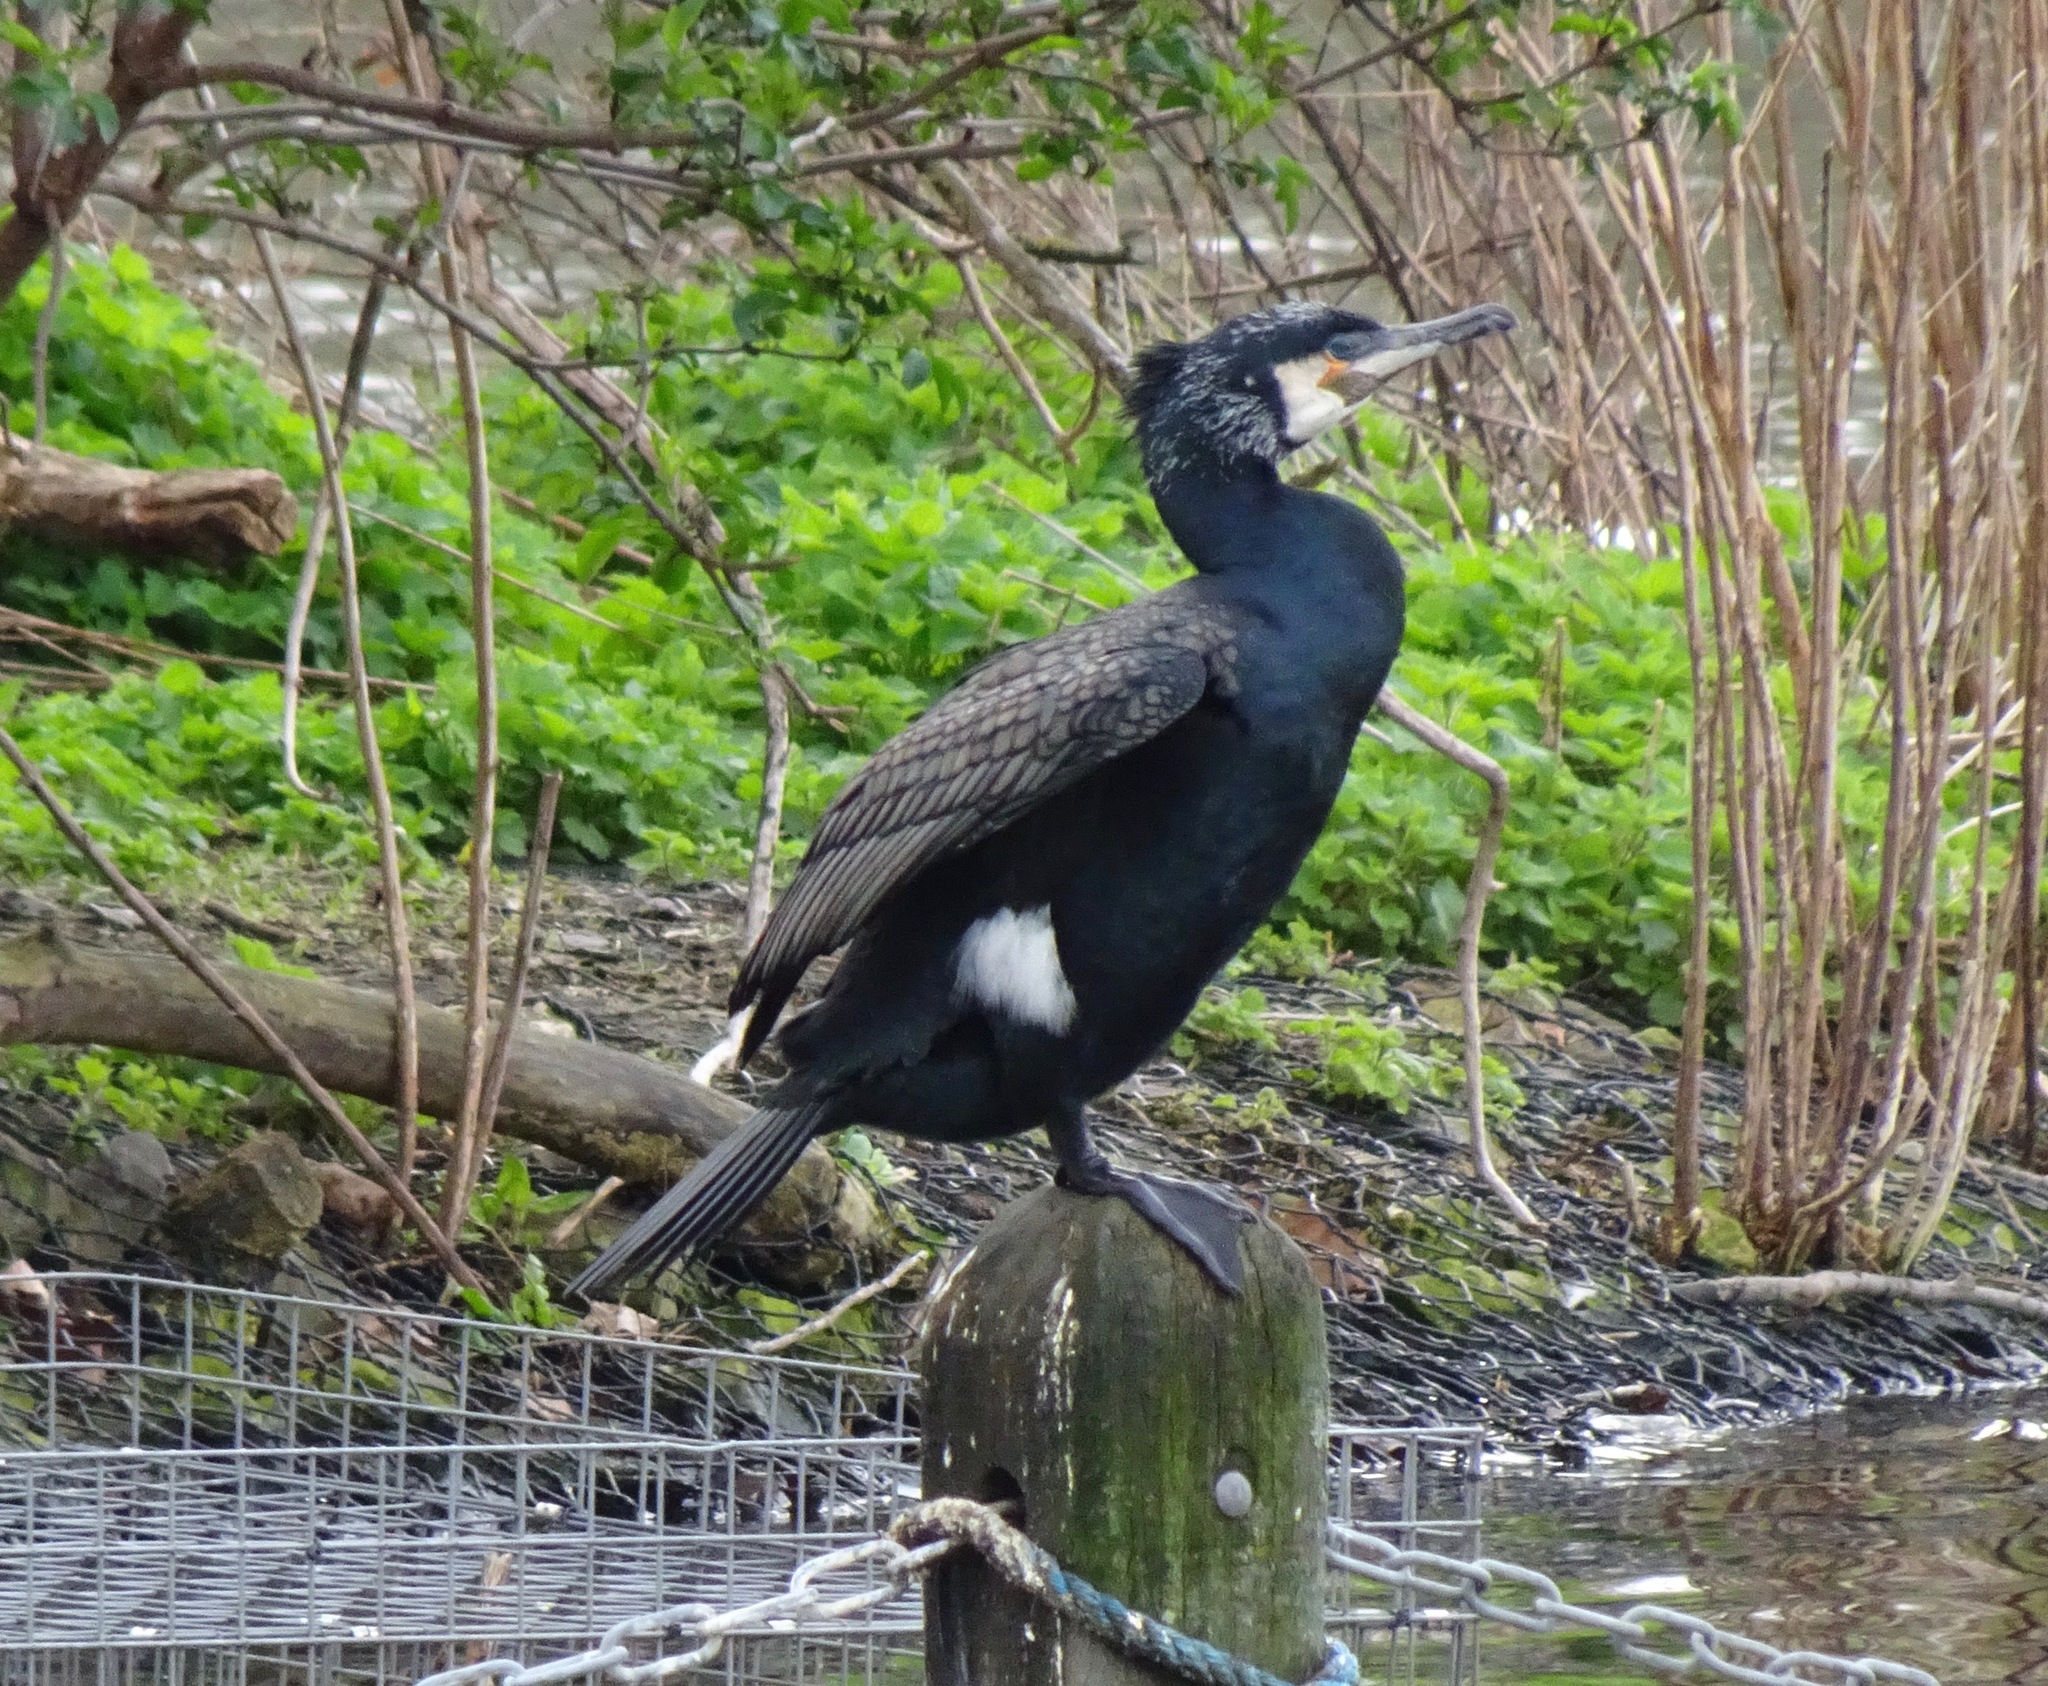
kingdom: Animalia
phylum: Chordata
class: Aves
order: Suliformes
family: Phalacrocoracidae
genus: Phalacrocorax
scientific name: Phalacrocorax carbo
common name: Great cormorant
